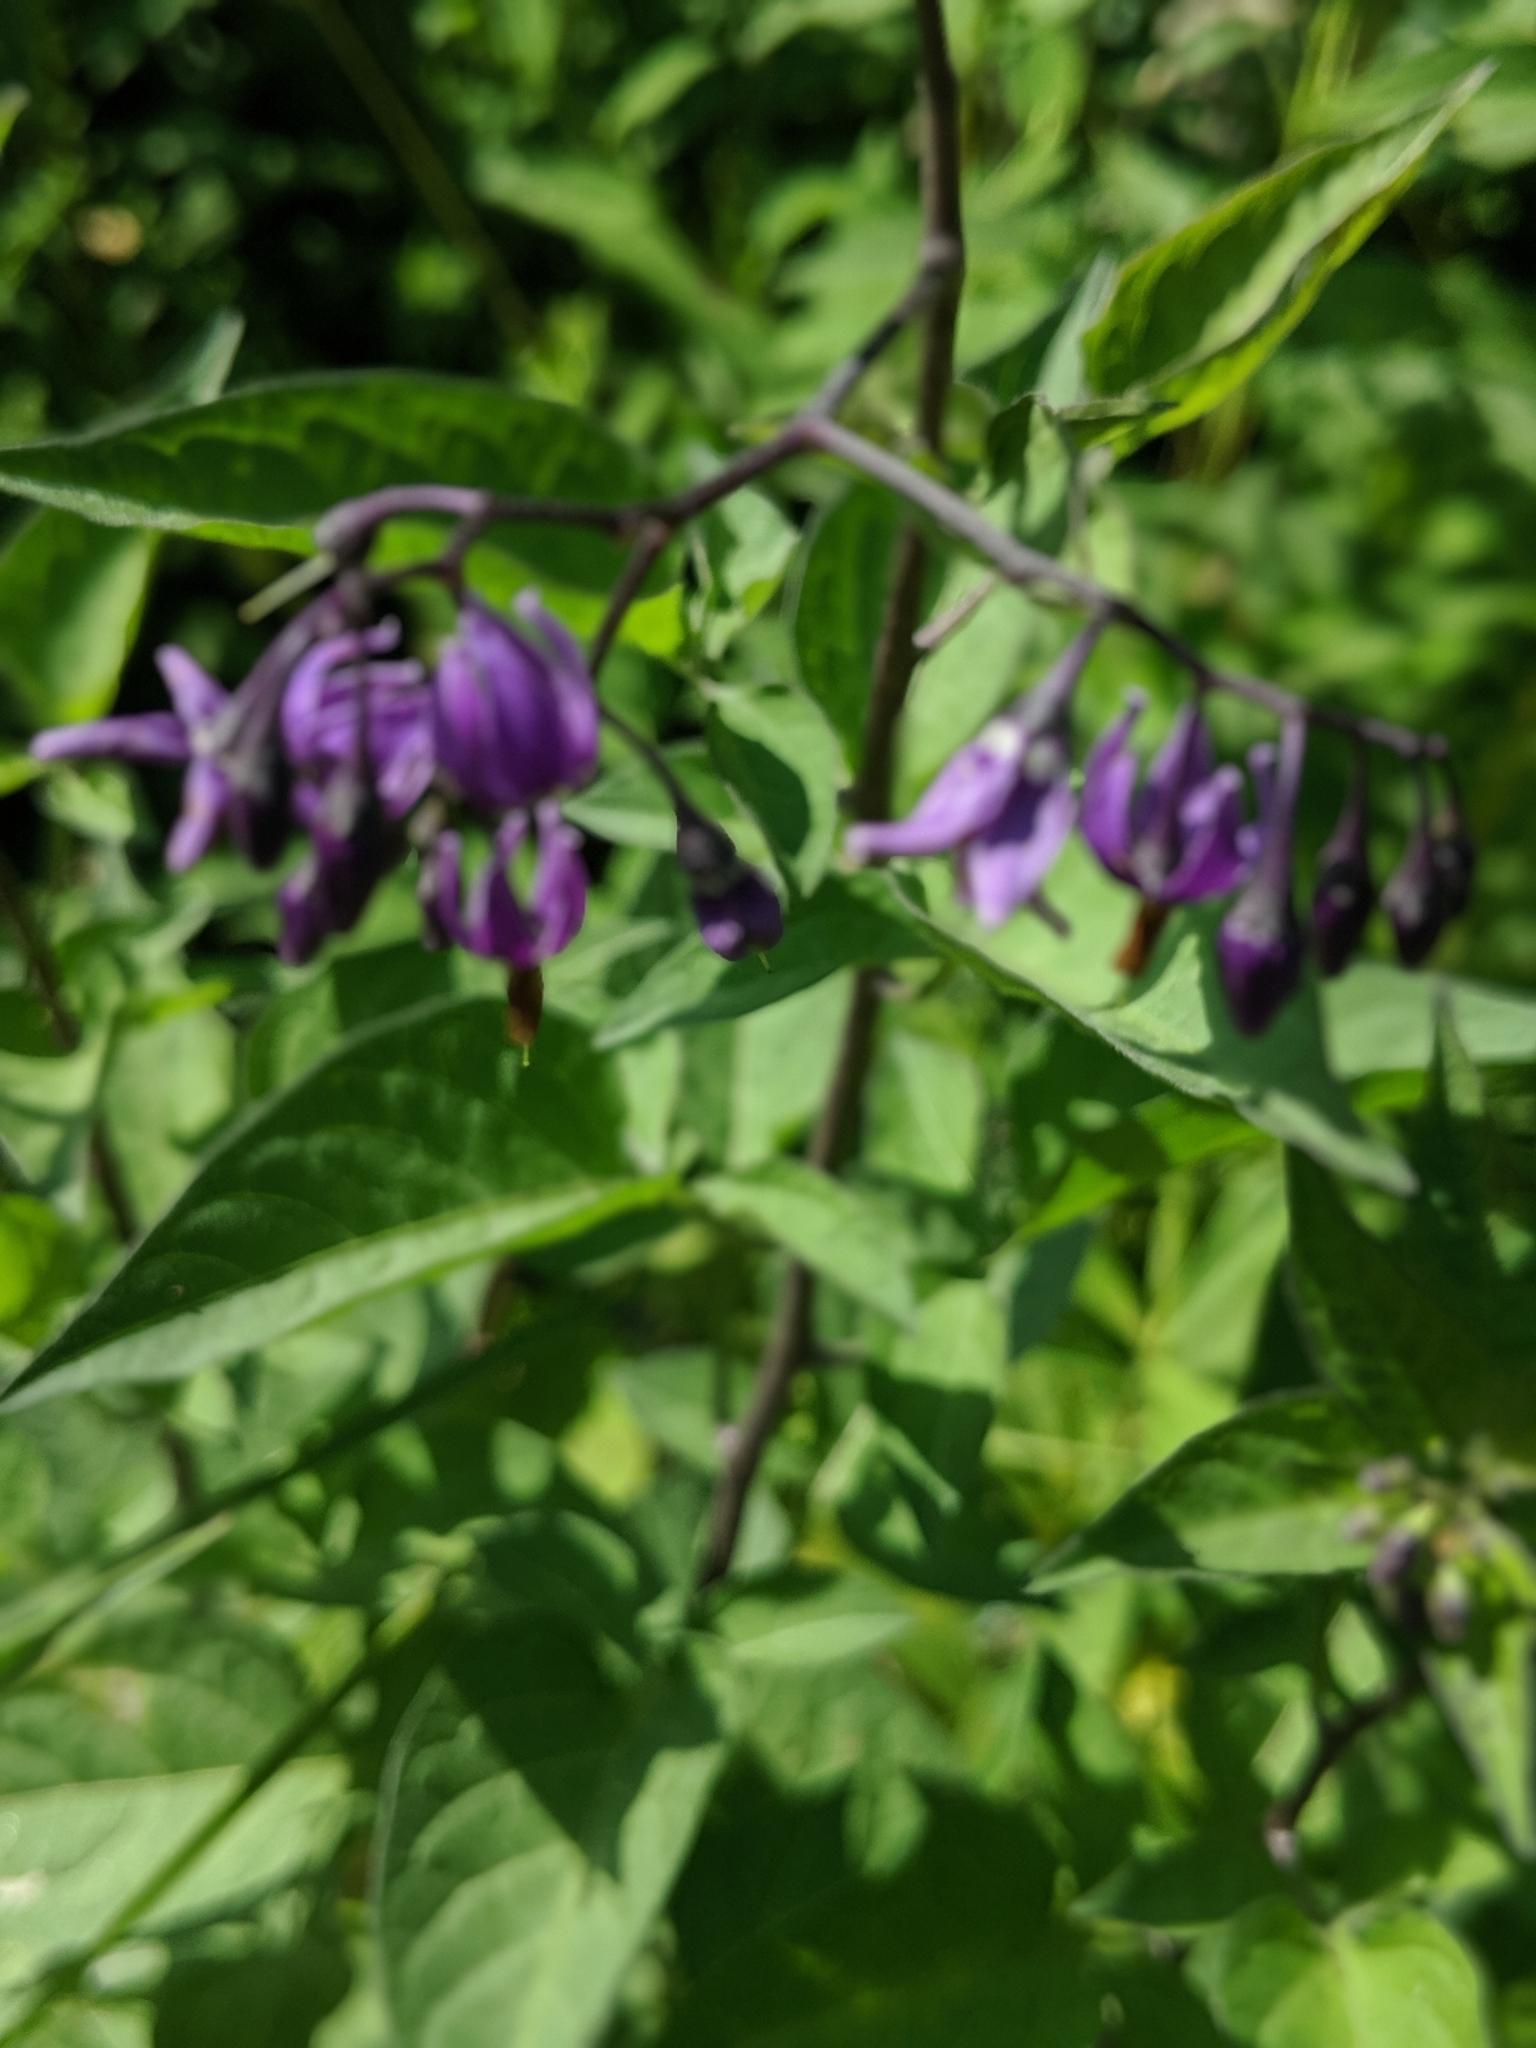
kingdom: Plantae
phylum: Tracheophyta
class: Magnoliopsida
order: Solanales
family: Solanaceae
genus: Solanum
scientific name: Solanum dulcamara
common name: Climbing nightshade
